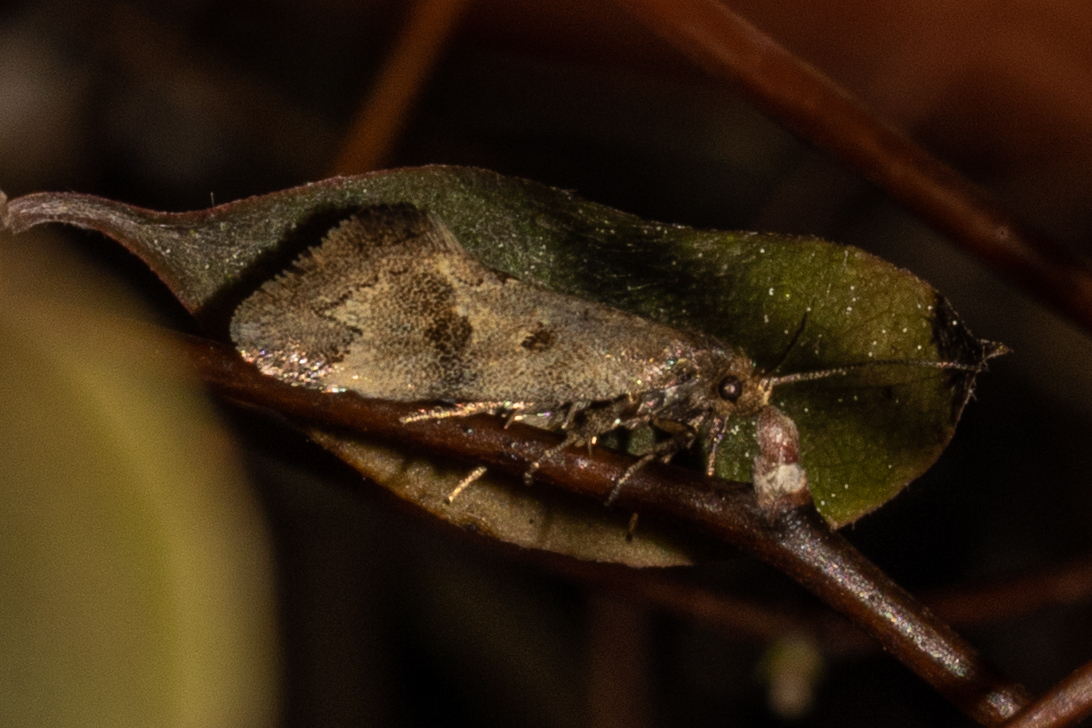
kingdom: Animalia
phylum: Arthropoda
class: Insecta
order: Lepidoptera
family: Oecophoridae
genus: Tingena
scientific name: Tingena brachyacma
